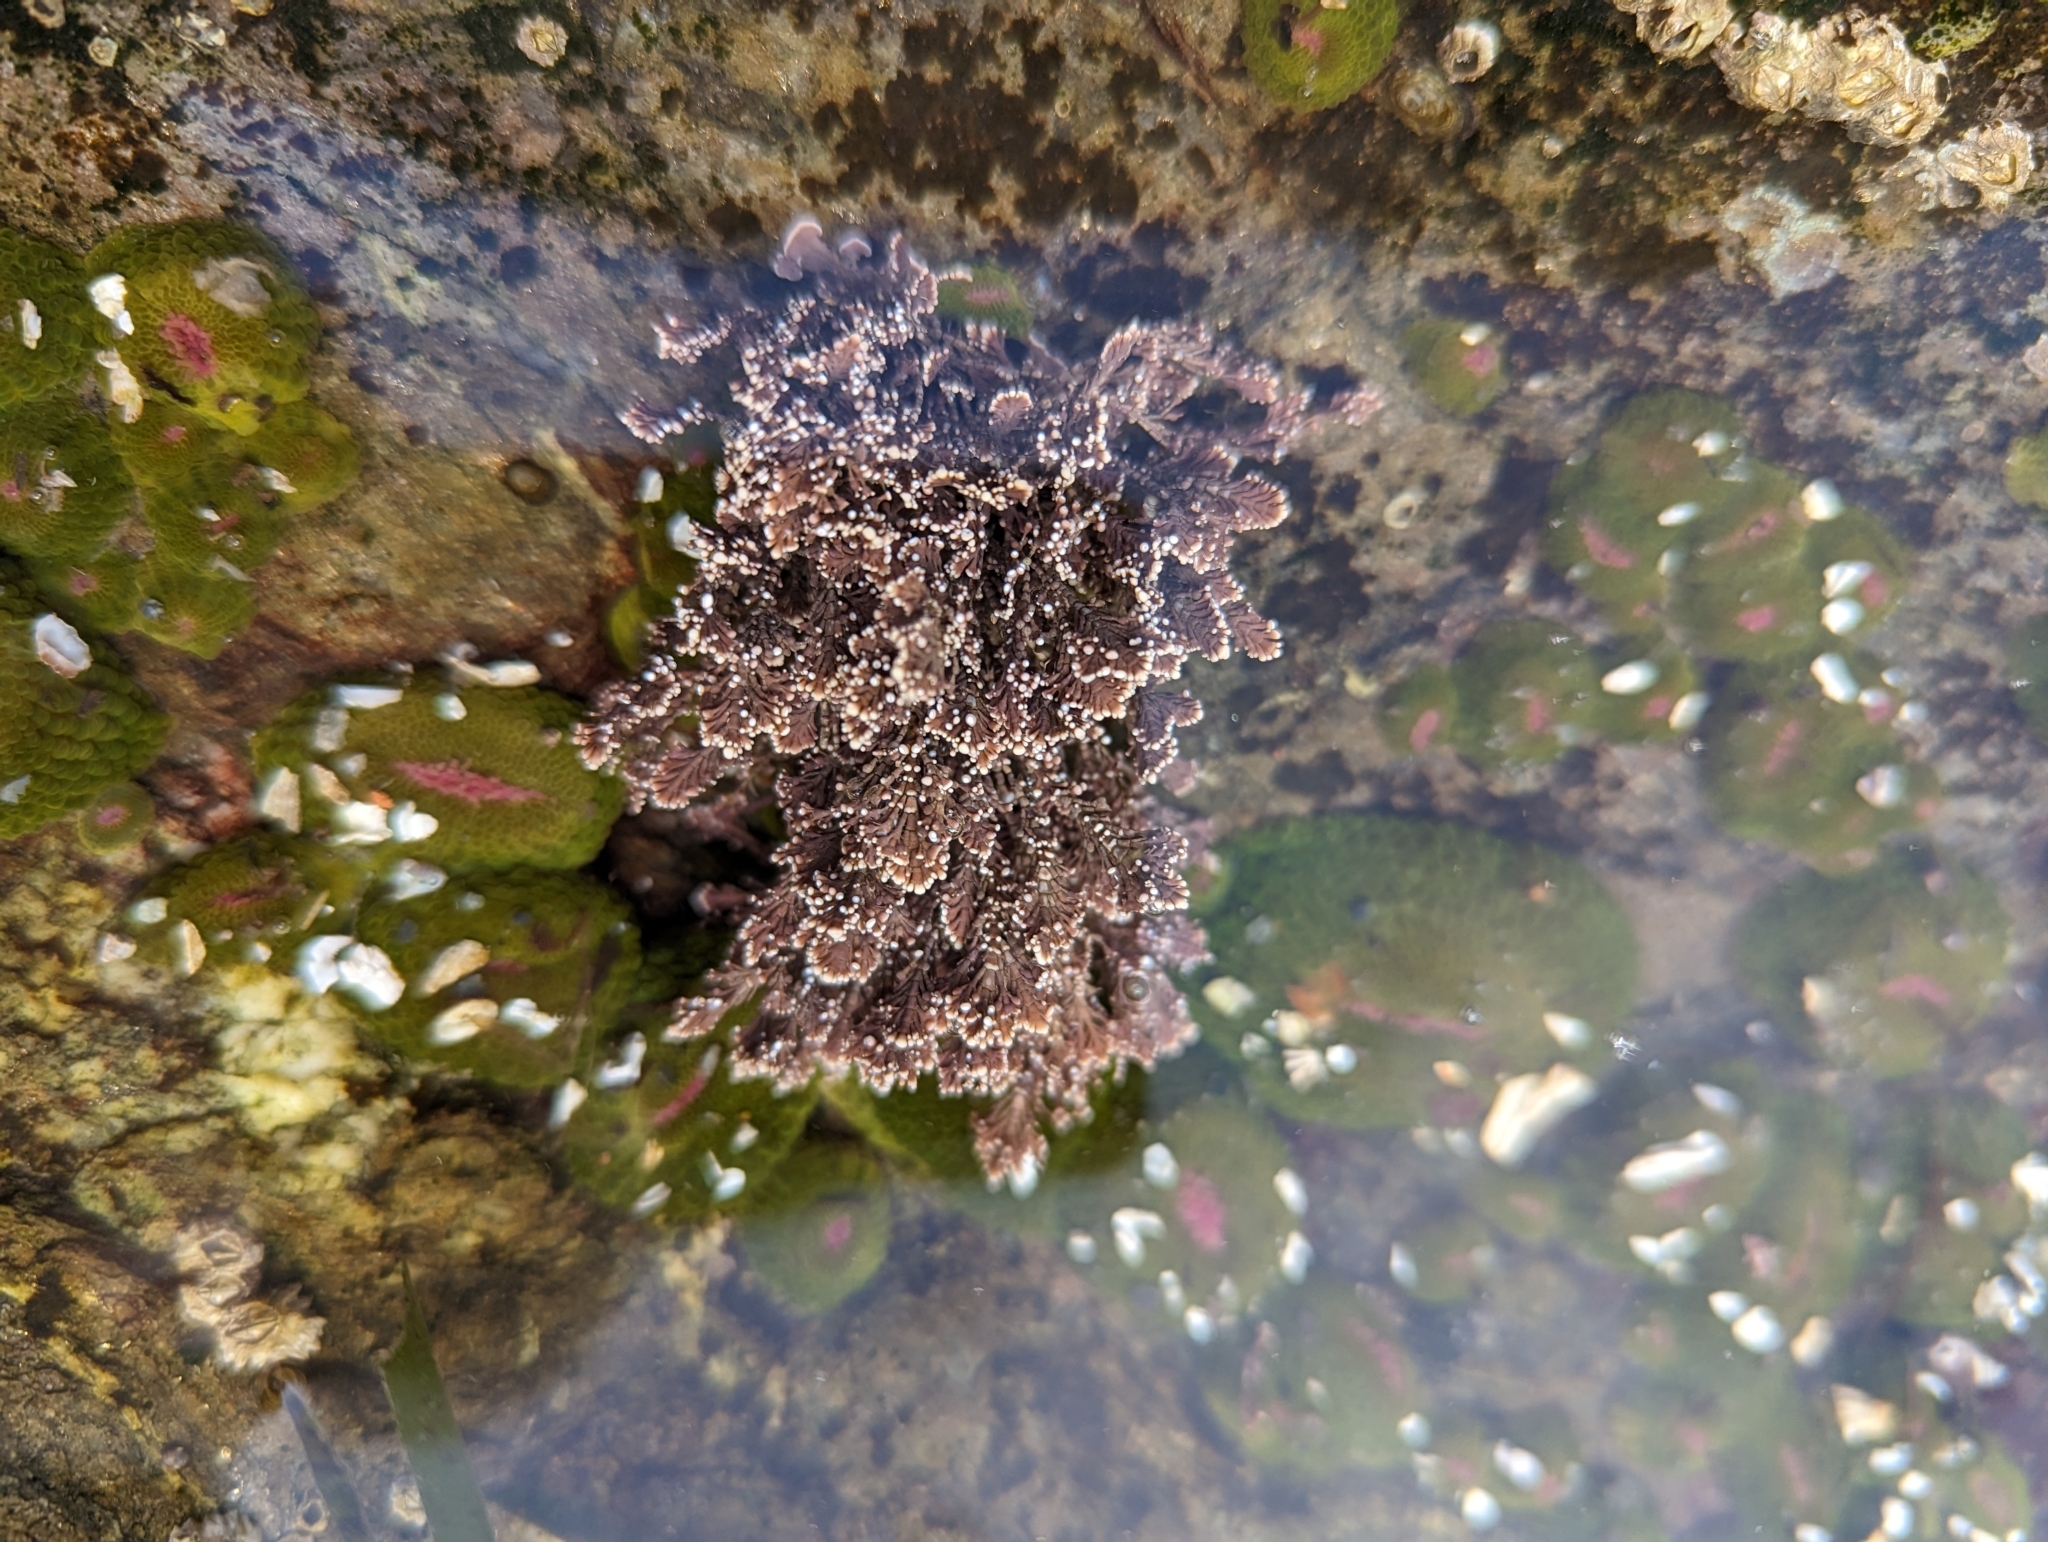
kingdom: Plantae
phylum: Rhodophyta
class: Florideophyceae
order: Corallinales
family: Corallinaceae
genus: Corallina
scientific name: Corallina vancouveriensis
